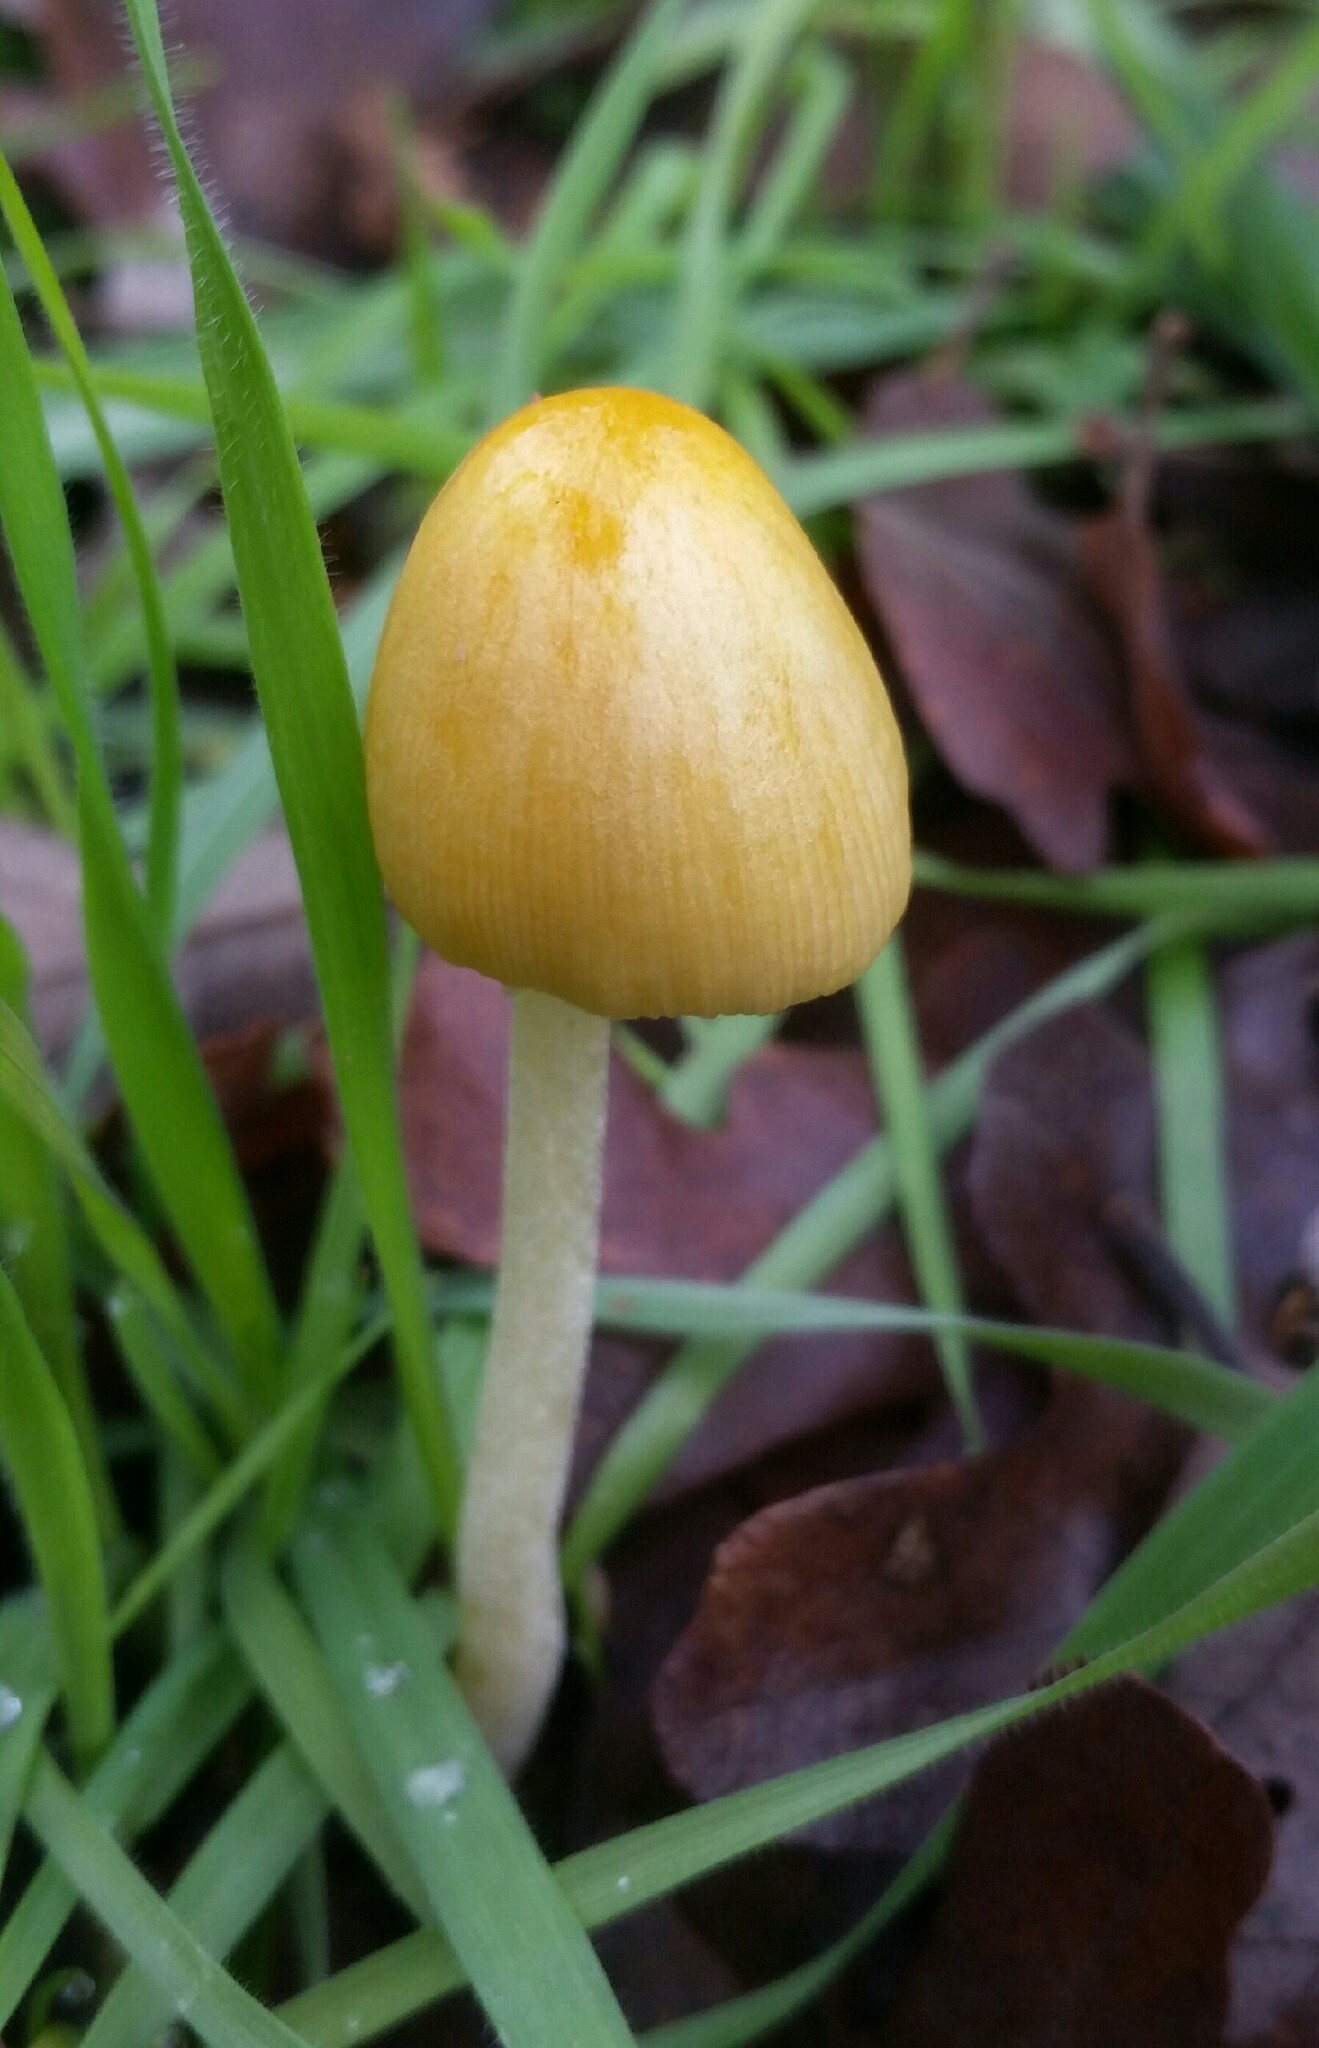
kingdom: Fungi
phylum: Basidiomycota
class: Agaricomycetes
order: Agaricales
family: Bolbitiaceae
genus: Bolbitius
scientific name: Bolbitius titubans
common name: Yellow fieldcap
